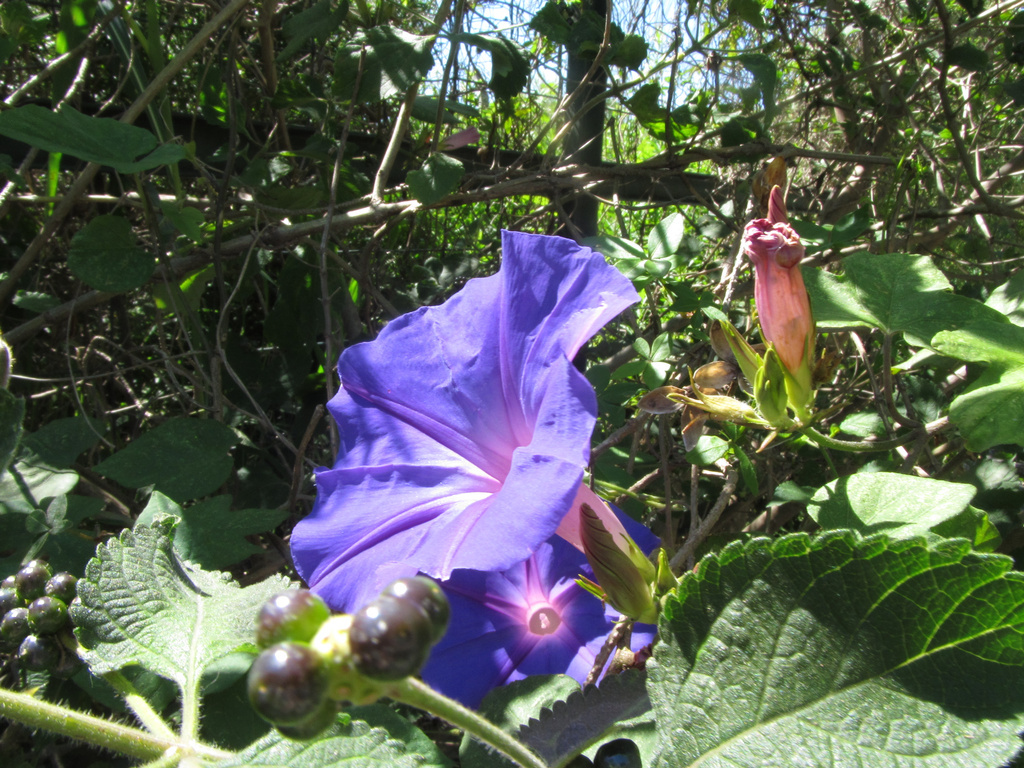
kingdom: Plantae
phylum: Tracheophyta
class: Magnoliopsida
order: Solanales
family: Convolvulaceae
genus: Ipomoea
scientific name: Ipomoea indica
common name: Blue dawnflower
